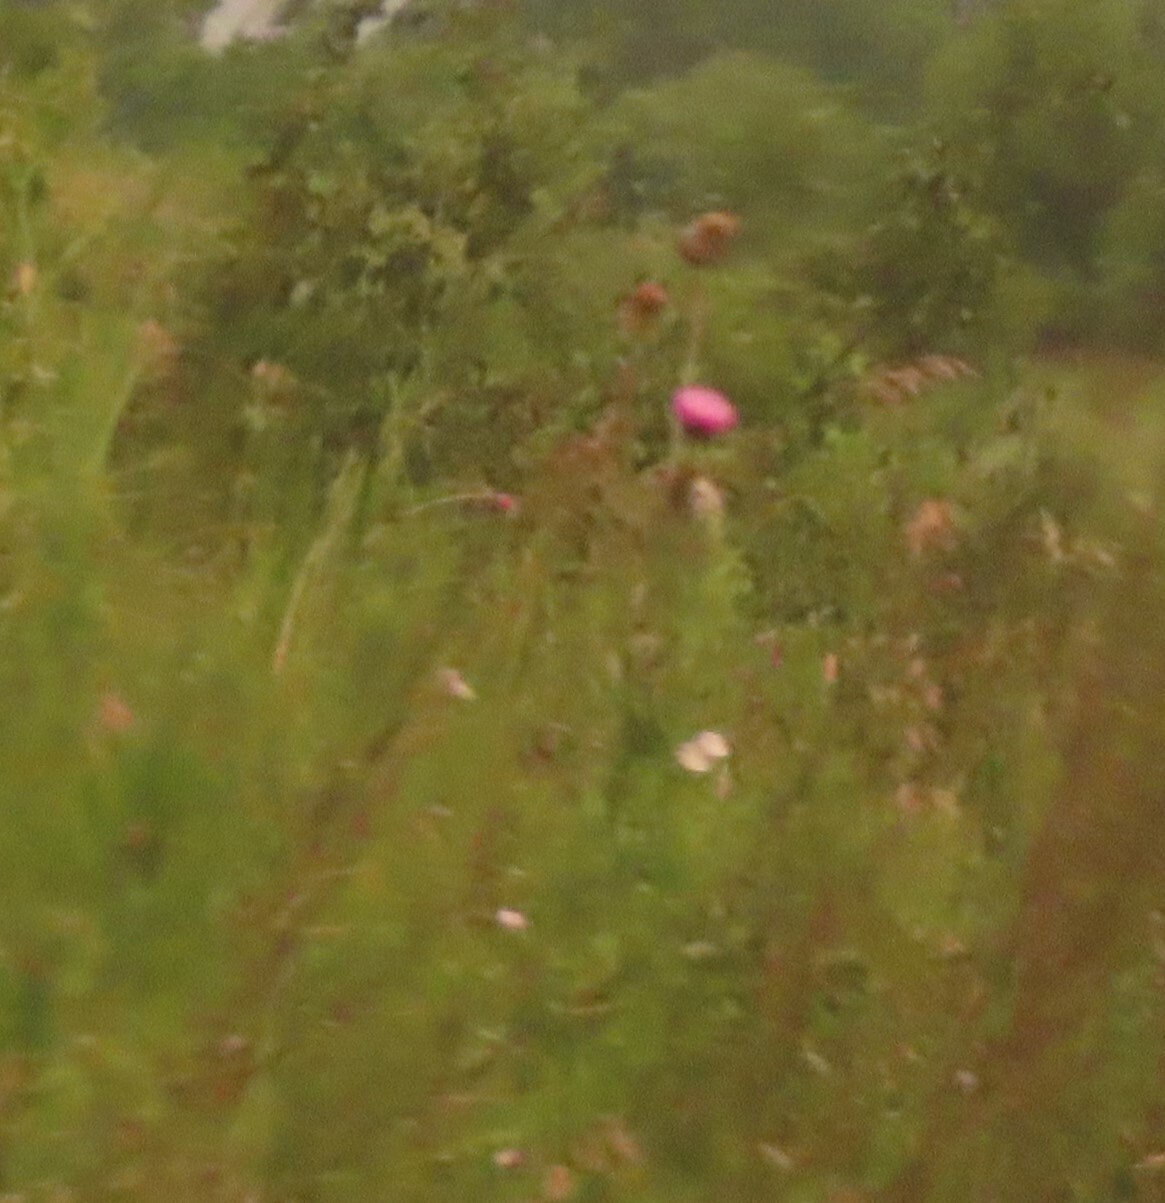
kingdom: Plantae
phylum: Tracheophyta
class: Magnoliopsida
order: Asterales
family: Asteraceae
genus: Carduus
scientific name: Carduus nutans
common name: Musk thistle
